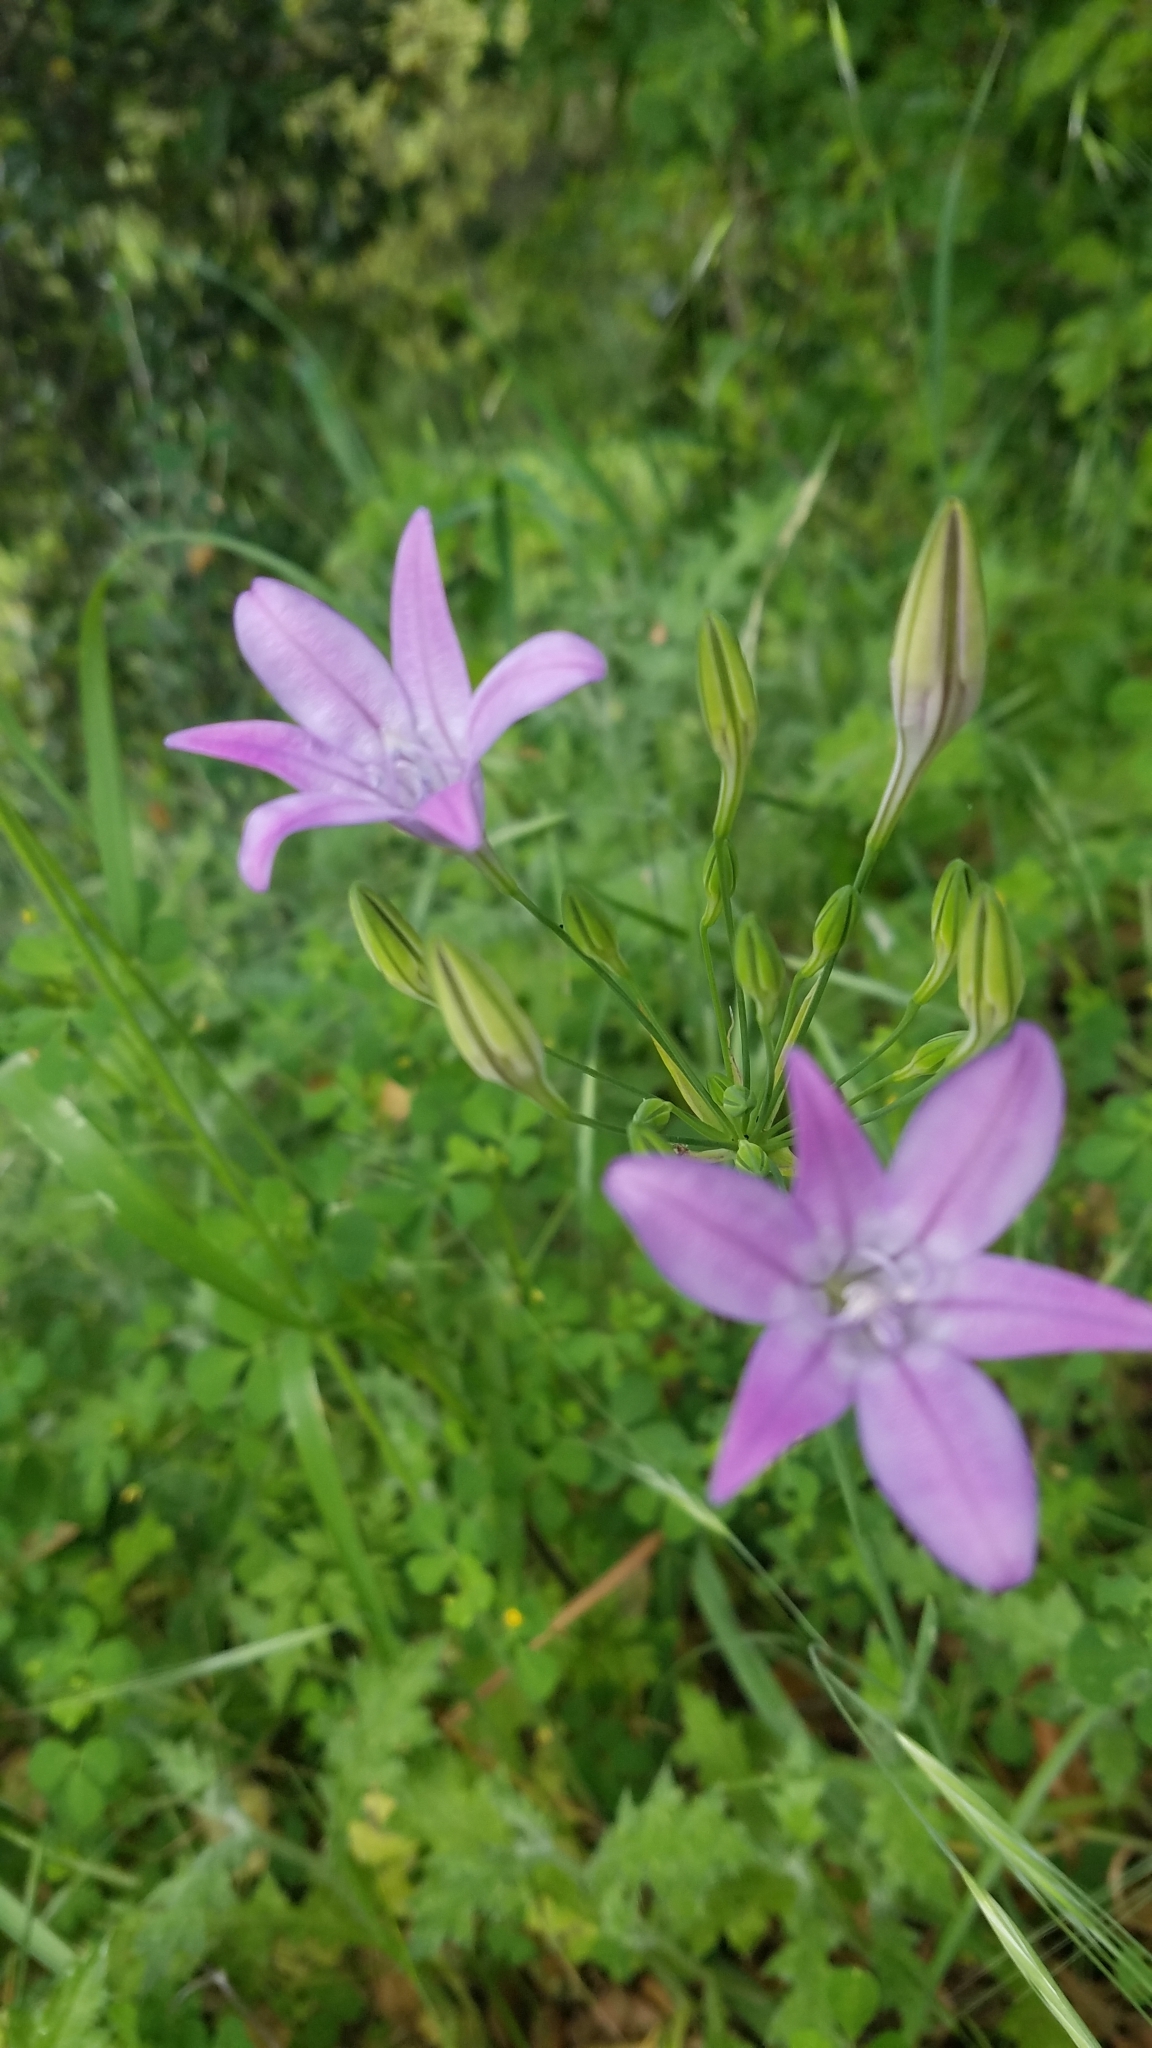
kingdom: Plantae
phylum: Tracheophyta
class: Liliopsida
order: Asparagales
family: Asparagaceae
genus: Triteleia
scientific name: Triteleia laxa
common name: Triplet-lily
